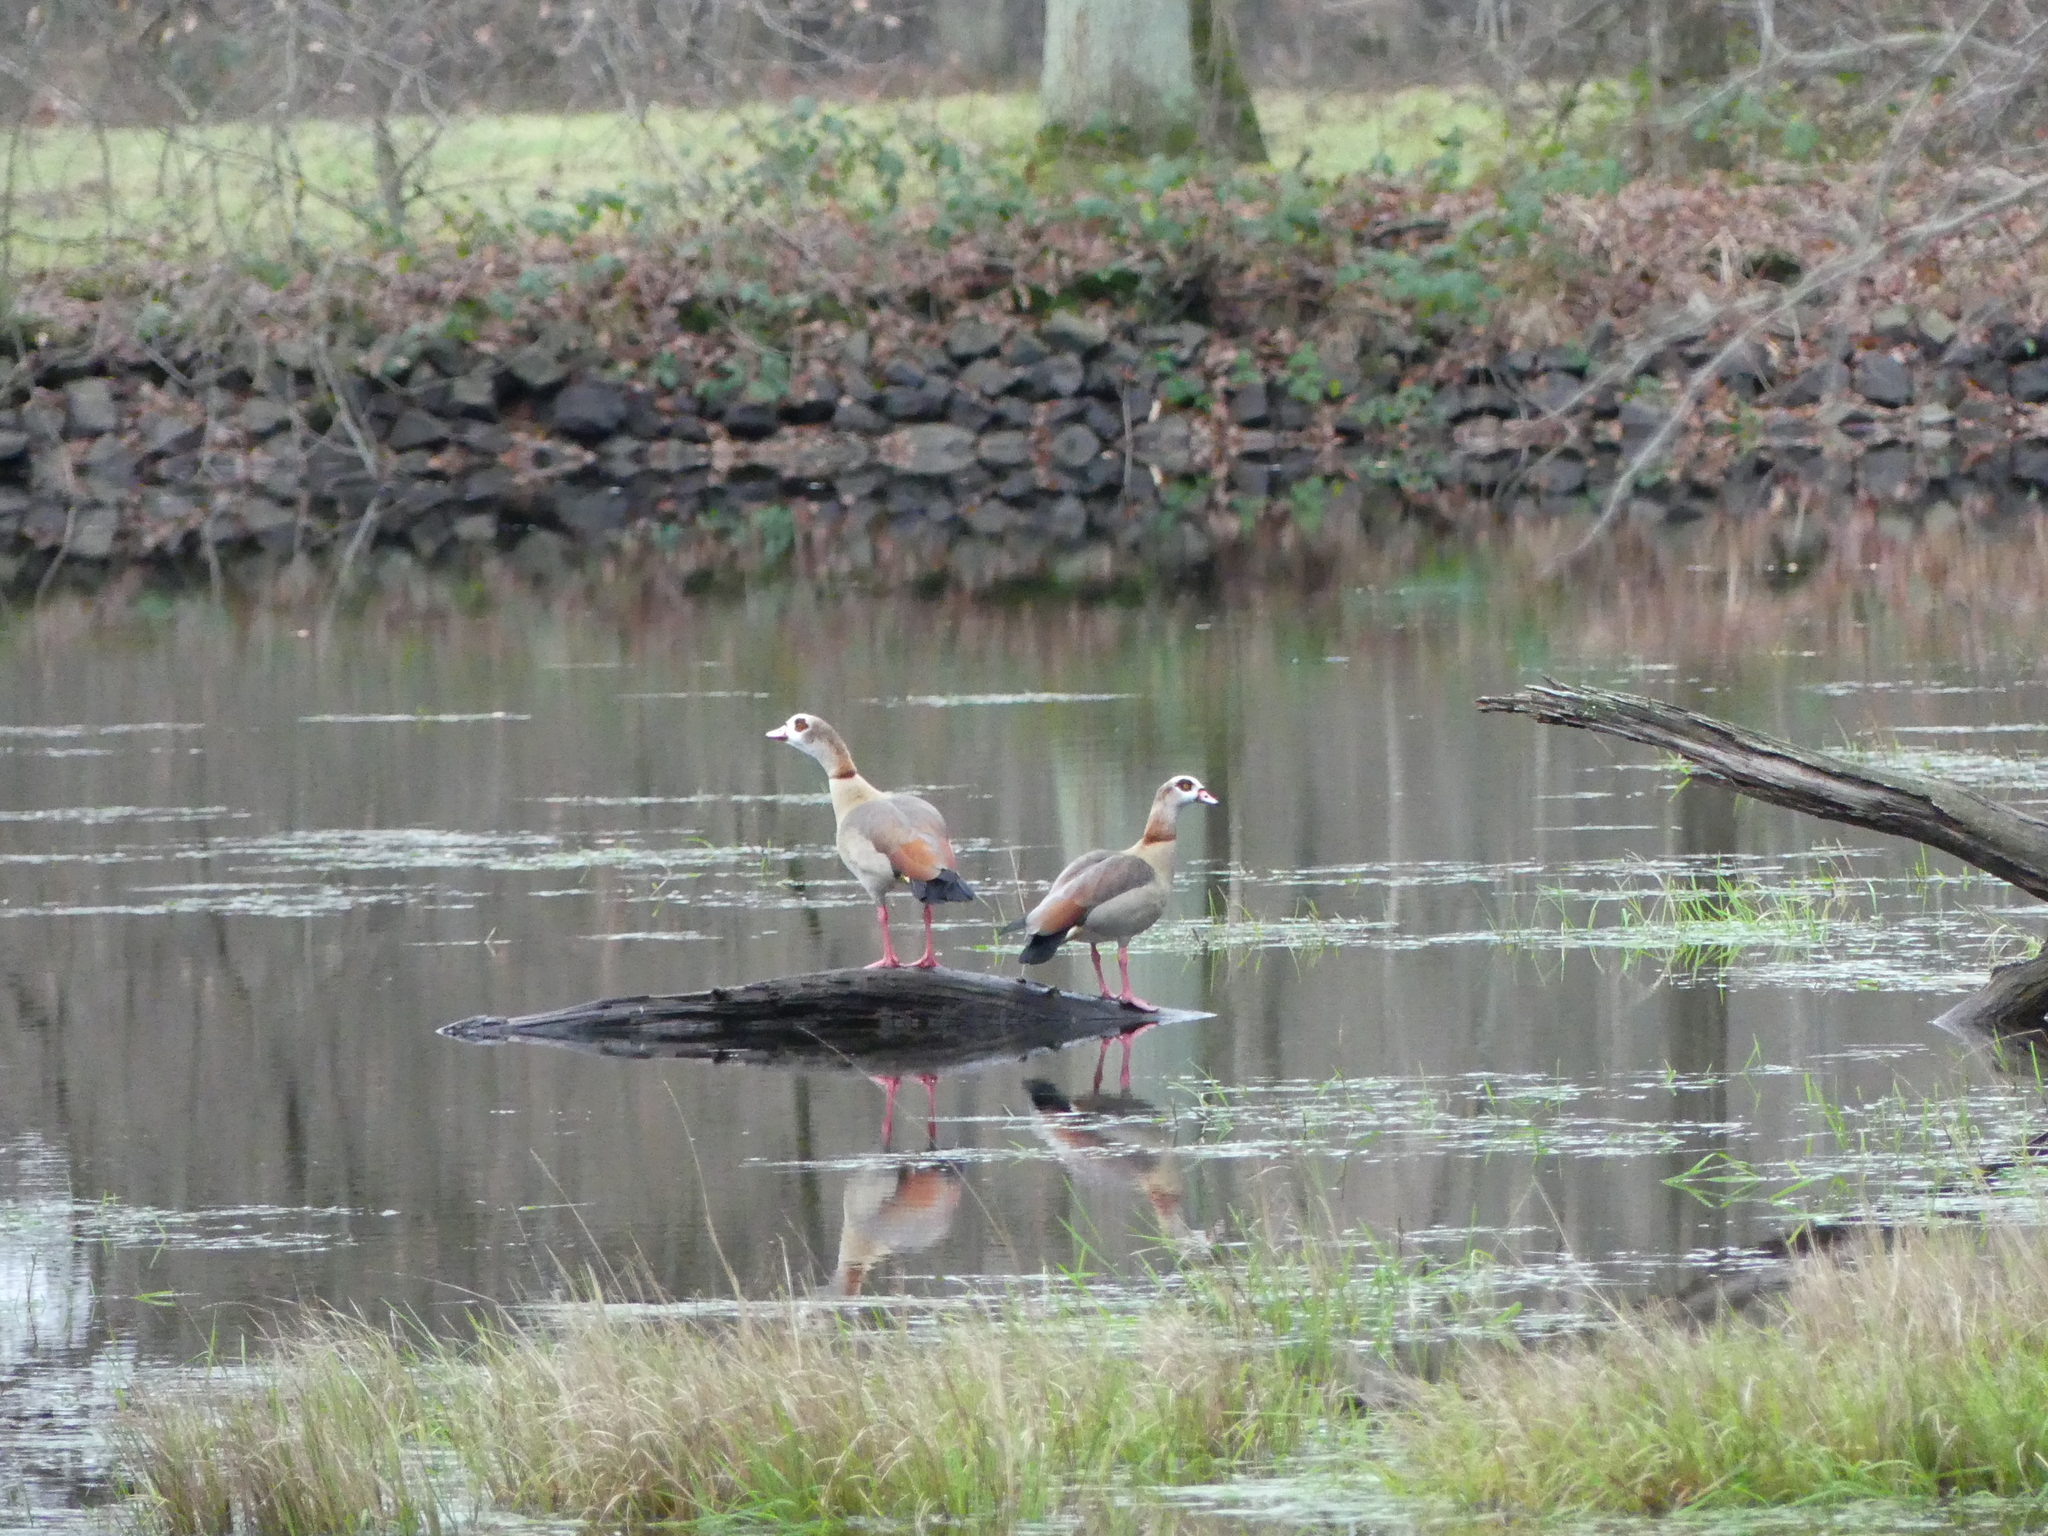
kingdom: Animalia
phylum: Chordata
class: Aves
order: Anseriformes
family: Anatidae
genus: Alopochen
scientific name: Alopochen aegyptiaca
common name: Egyptian goose
